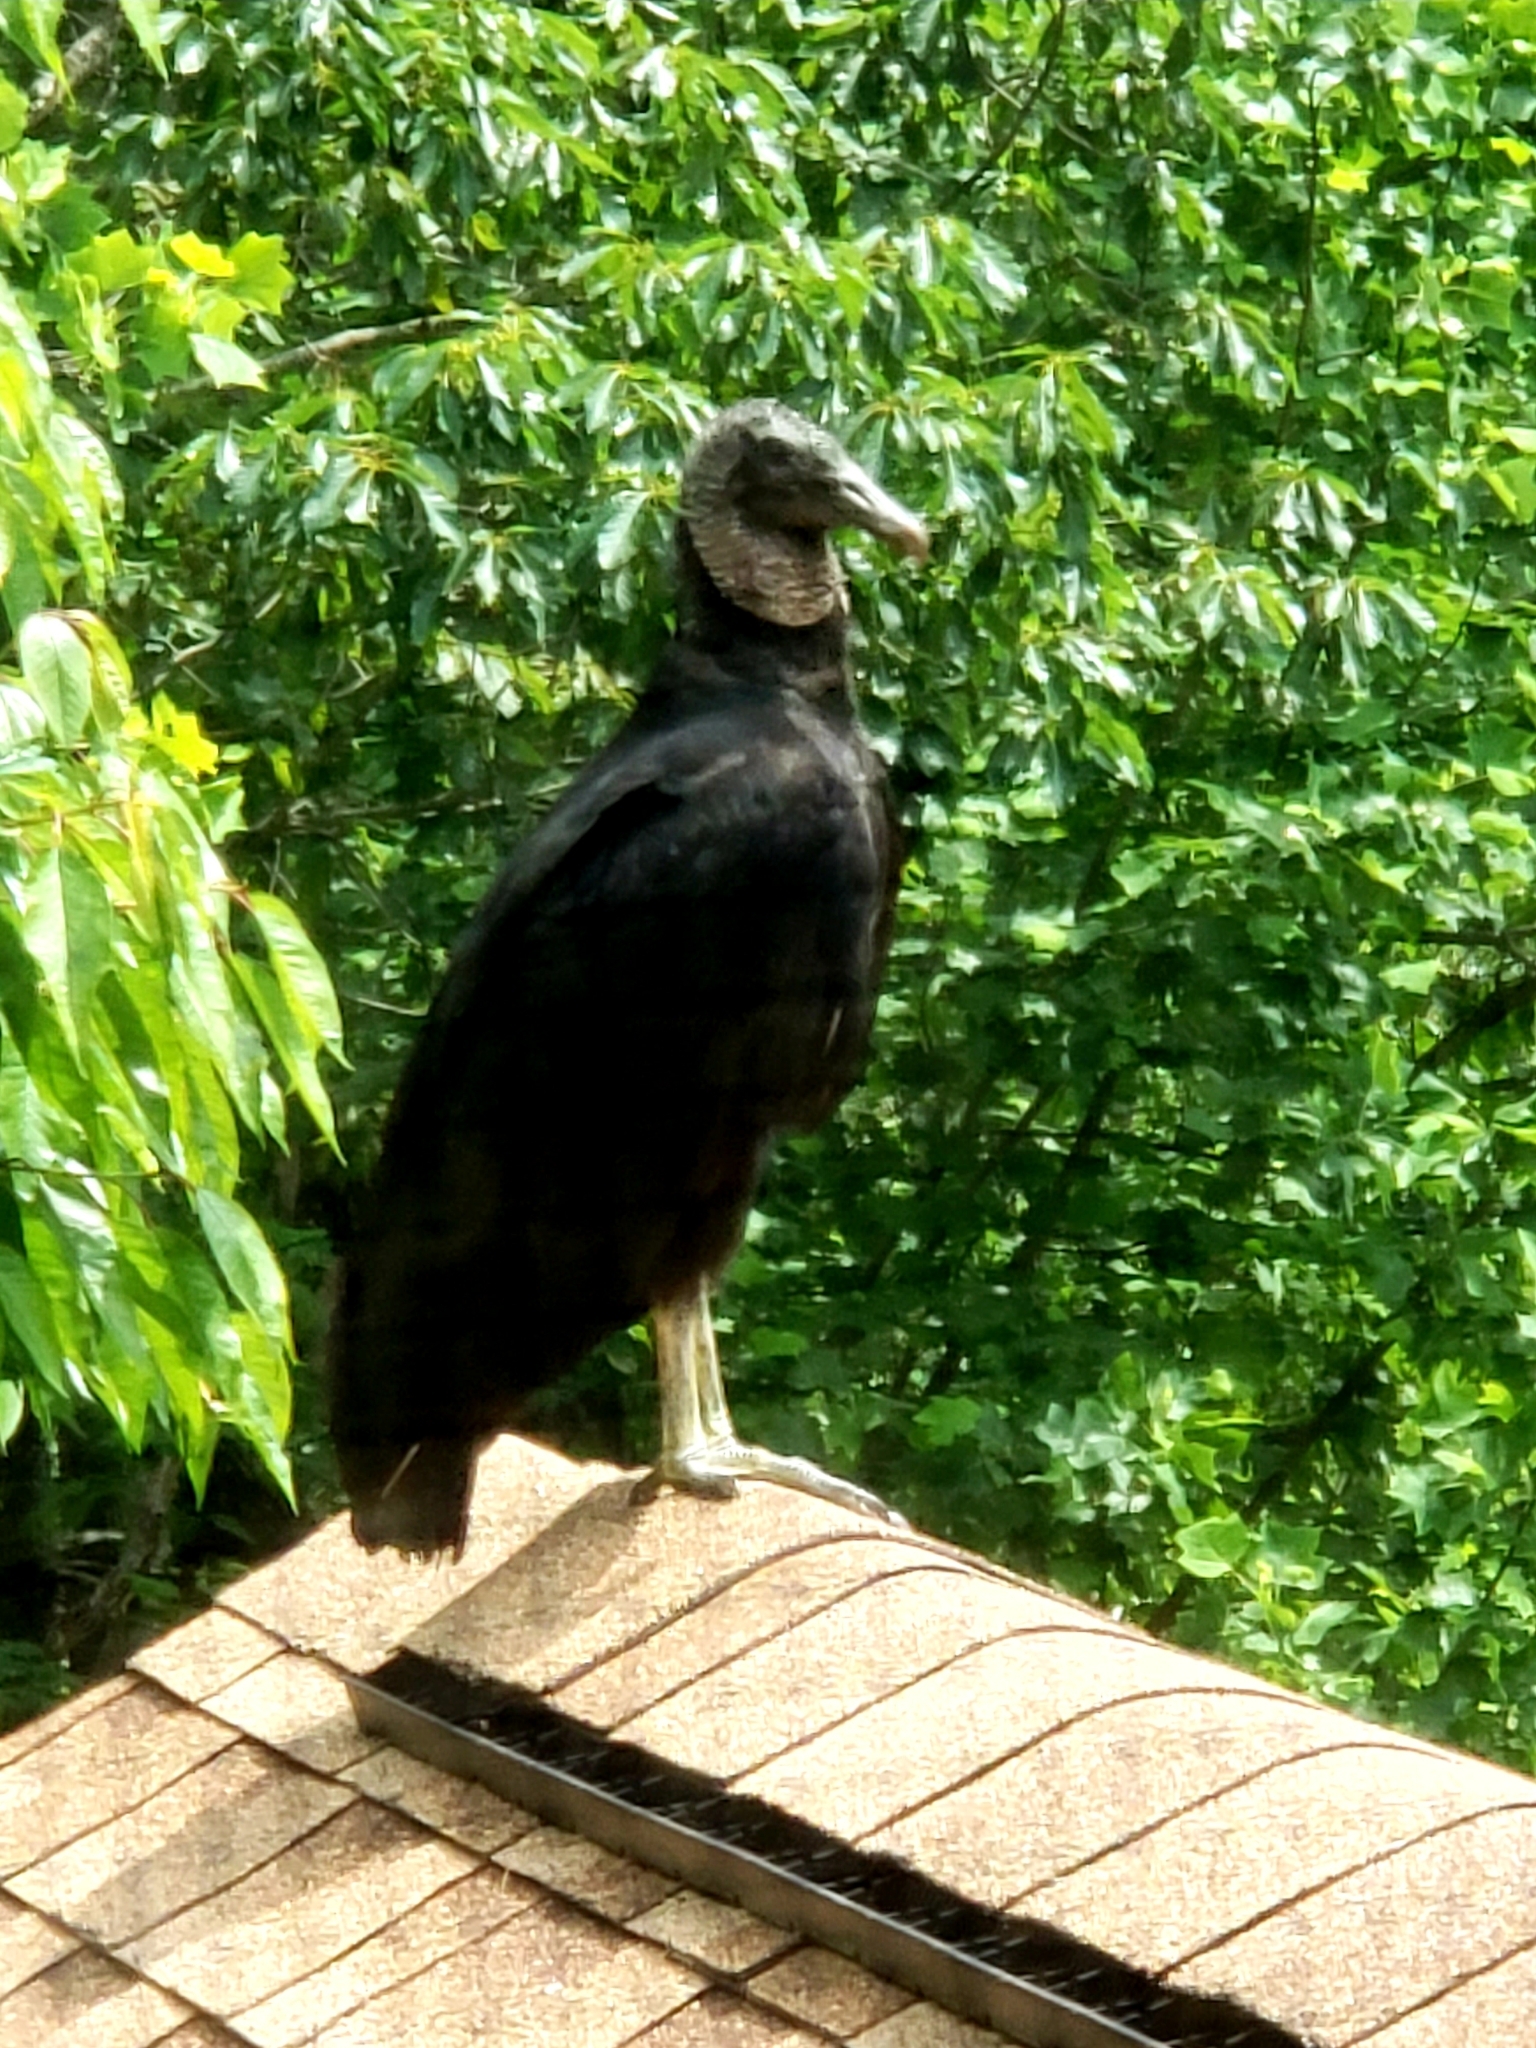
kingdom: Animalia
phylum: Chordata
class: Aves
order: Accipitriformes
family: Cathartidae
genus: Coragyps
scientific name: Coragyps atratus
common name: Black vulture
